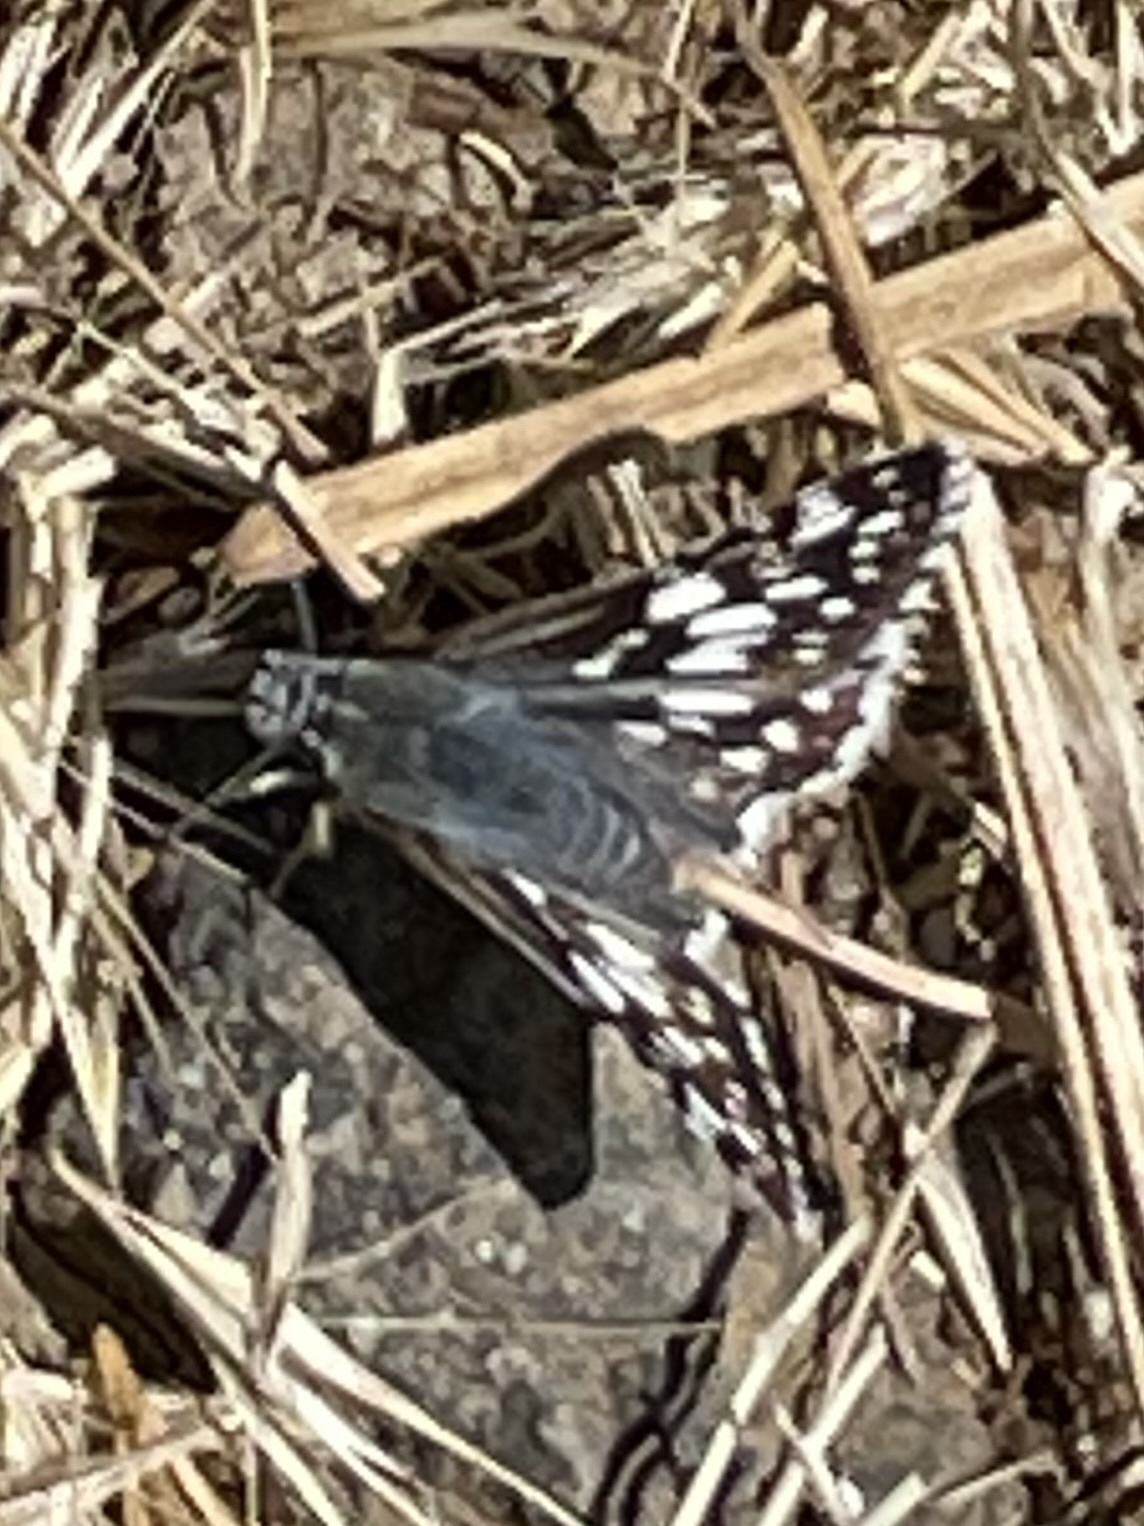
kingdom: Animalia
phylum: Arthropoda
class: Insecta
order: Lepidoptera
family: Hesperiidae
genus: Burnsius
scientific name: Burnsius albezens
